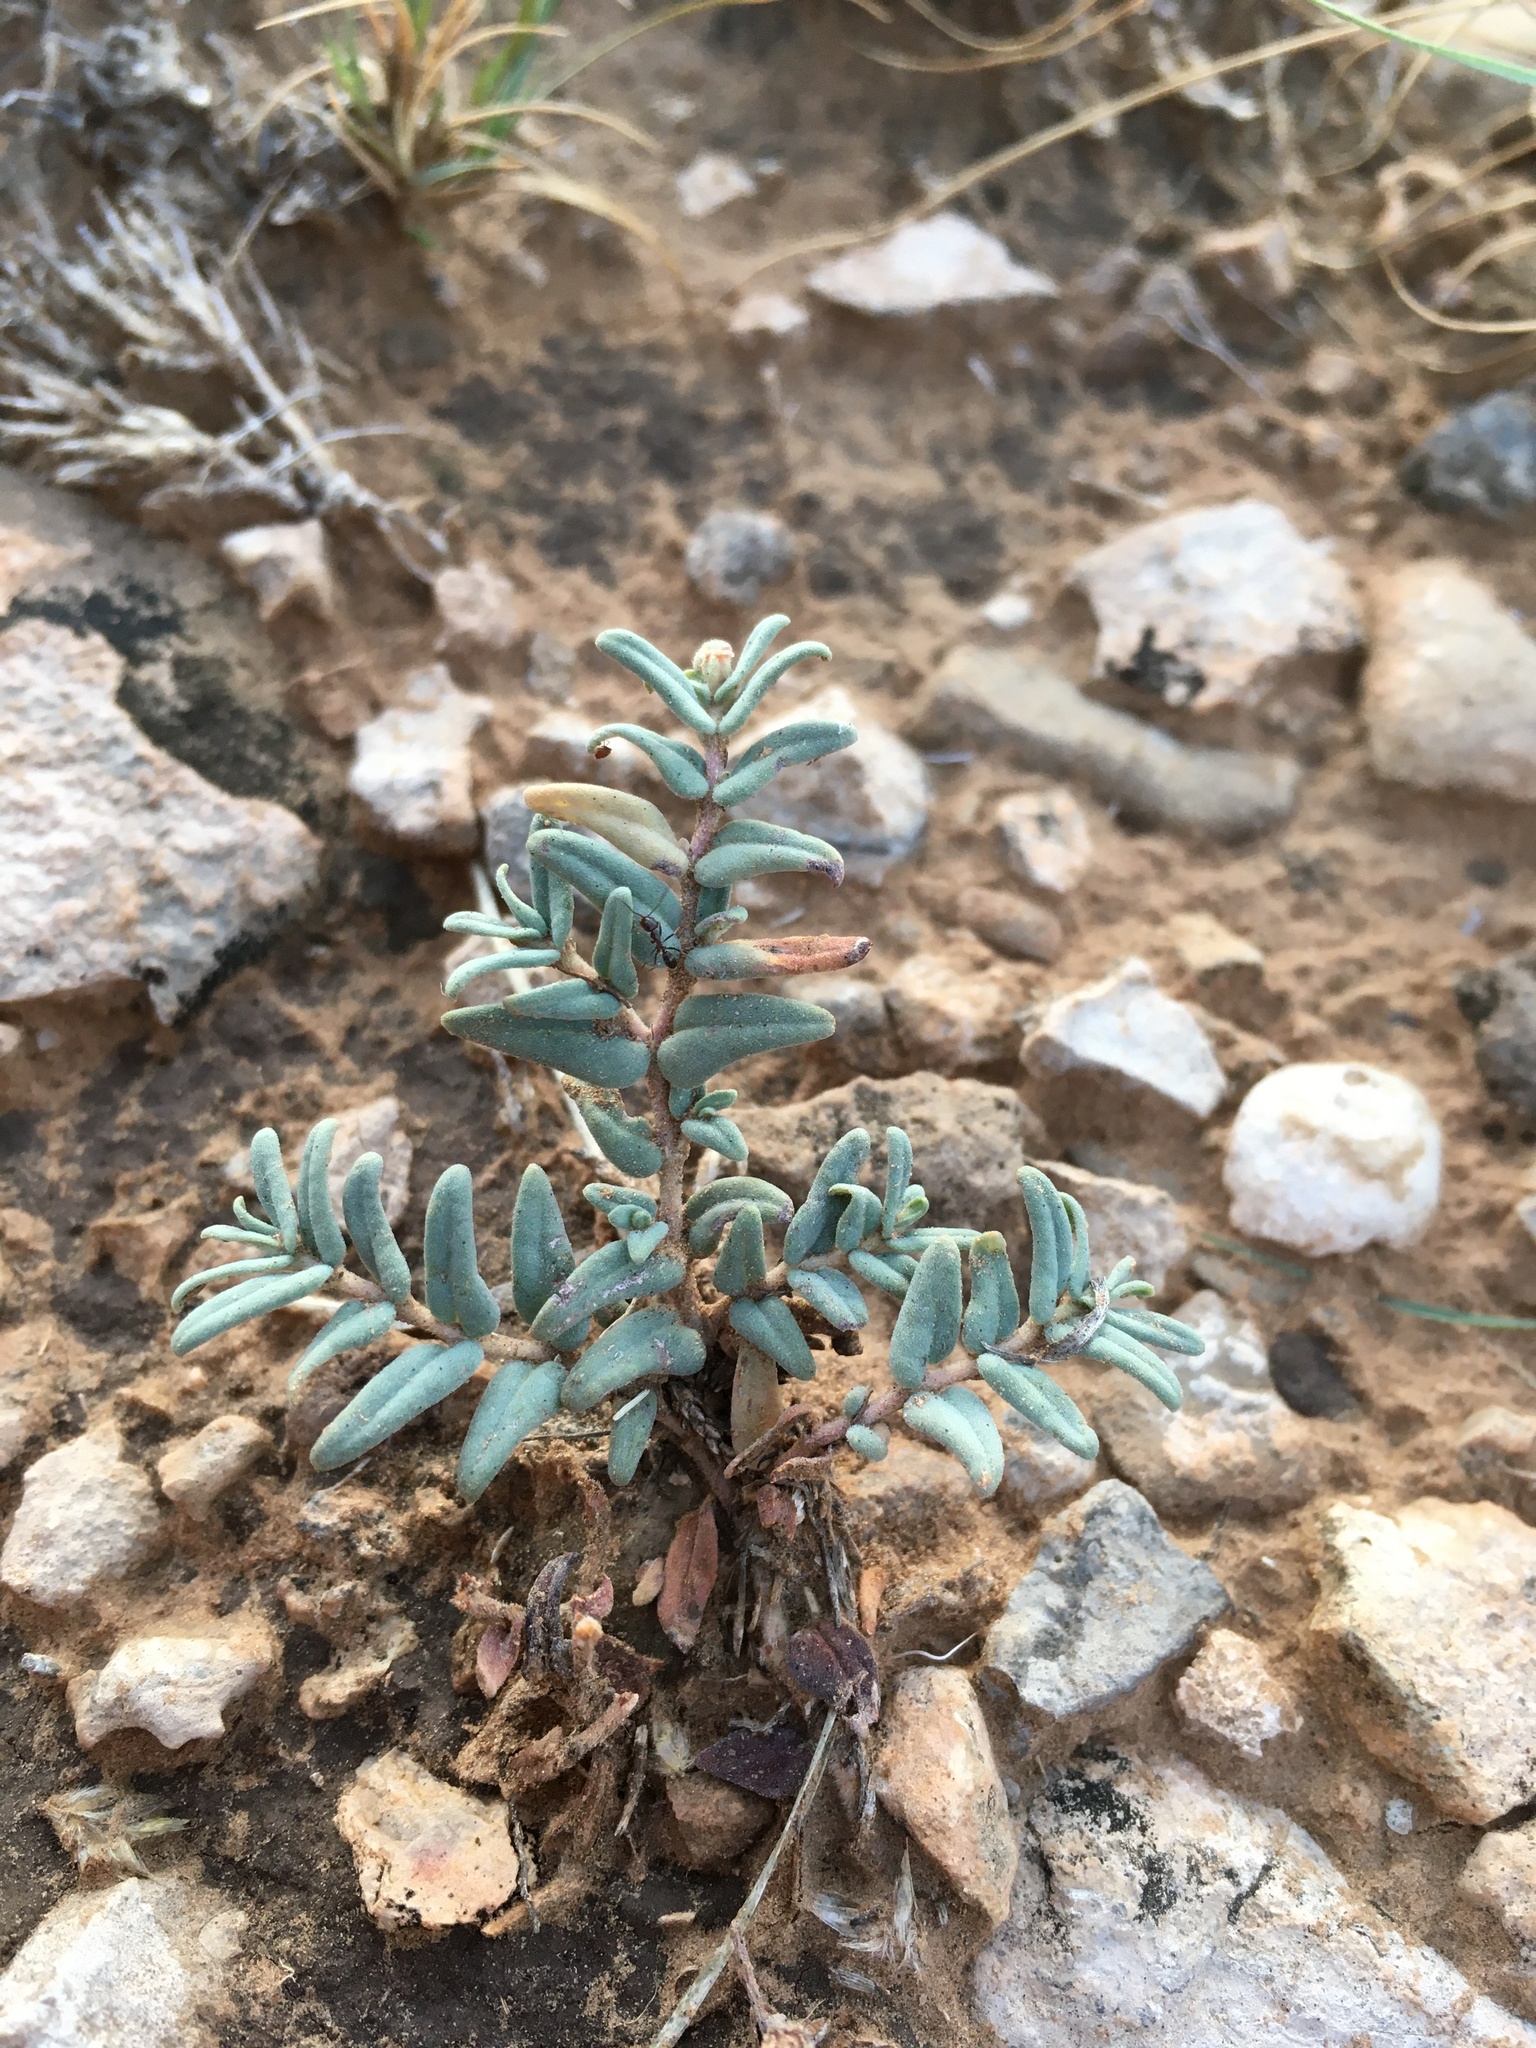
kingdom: Plantae
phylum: Tracheophyta
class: Magnoliopsida
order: Malpighiales
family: Euphorbiaceae
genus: Euphorbia
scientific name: Euphorbia lata
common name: Hoary euphorbia
